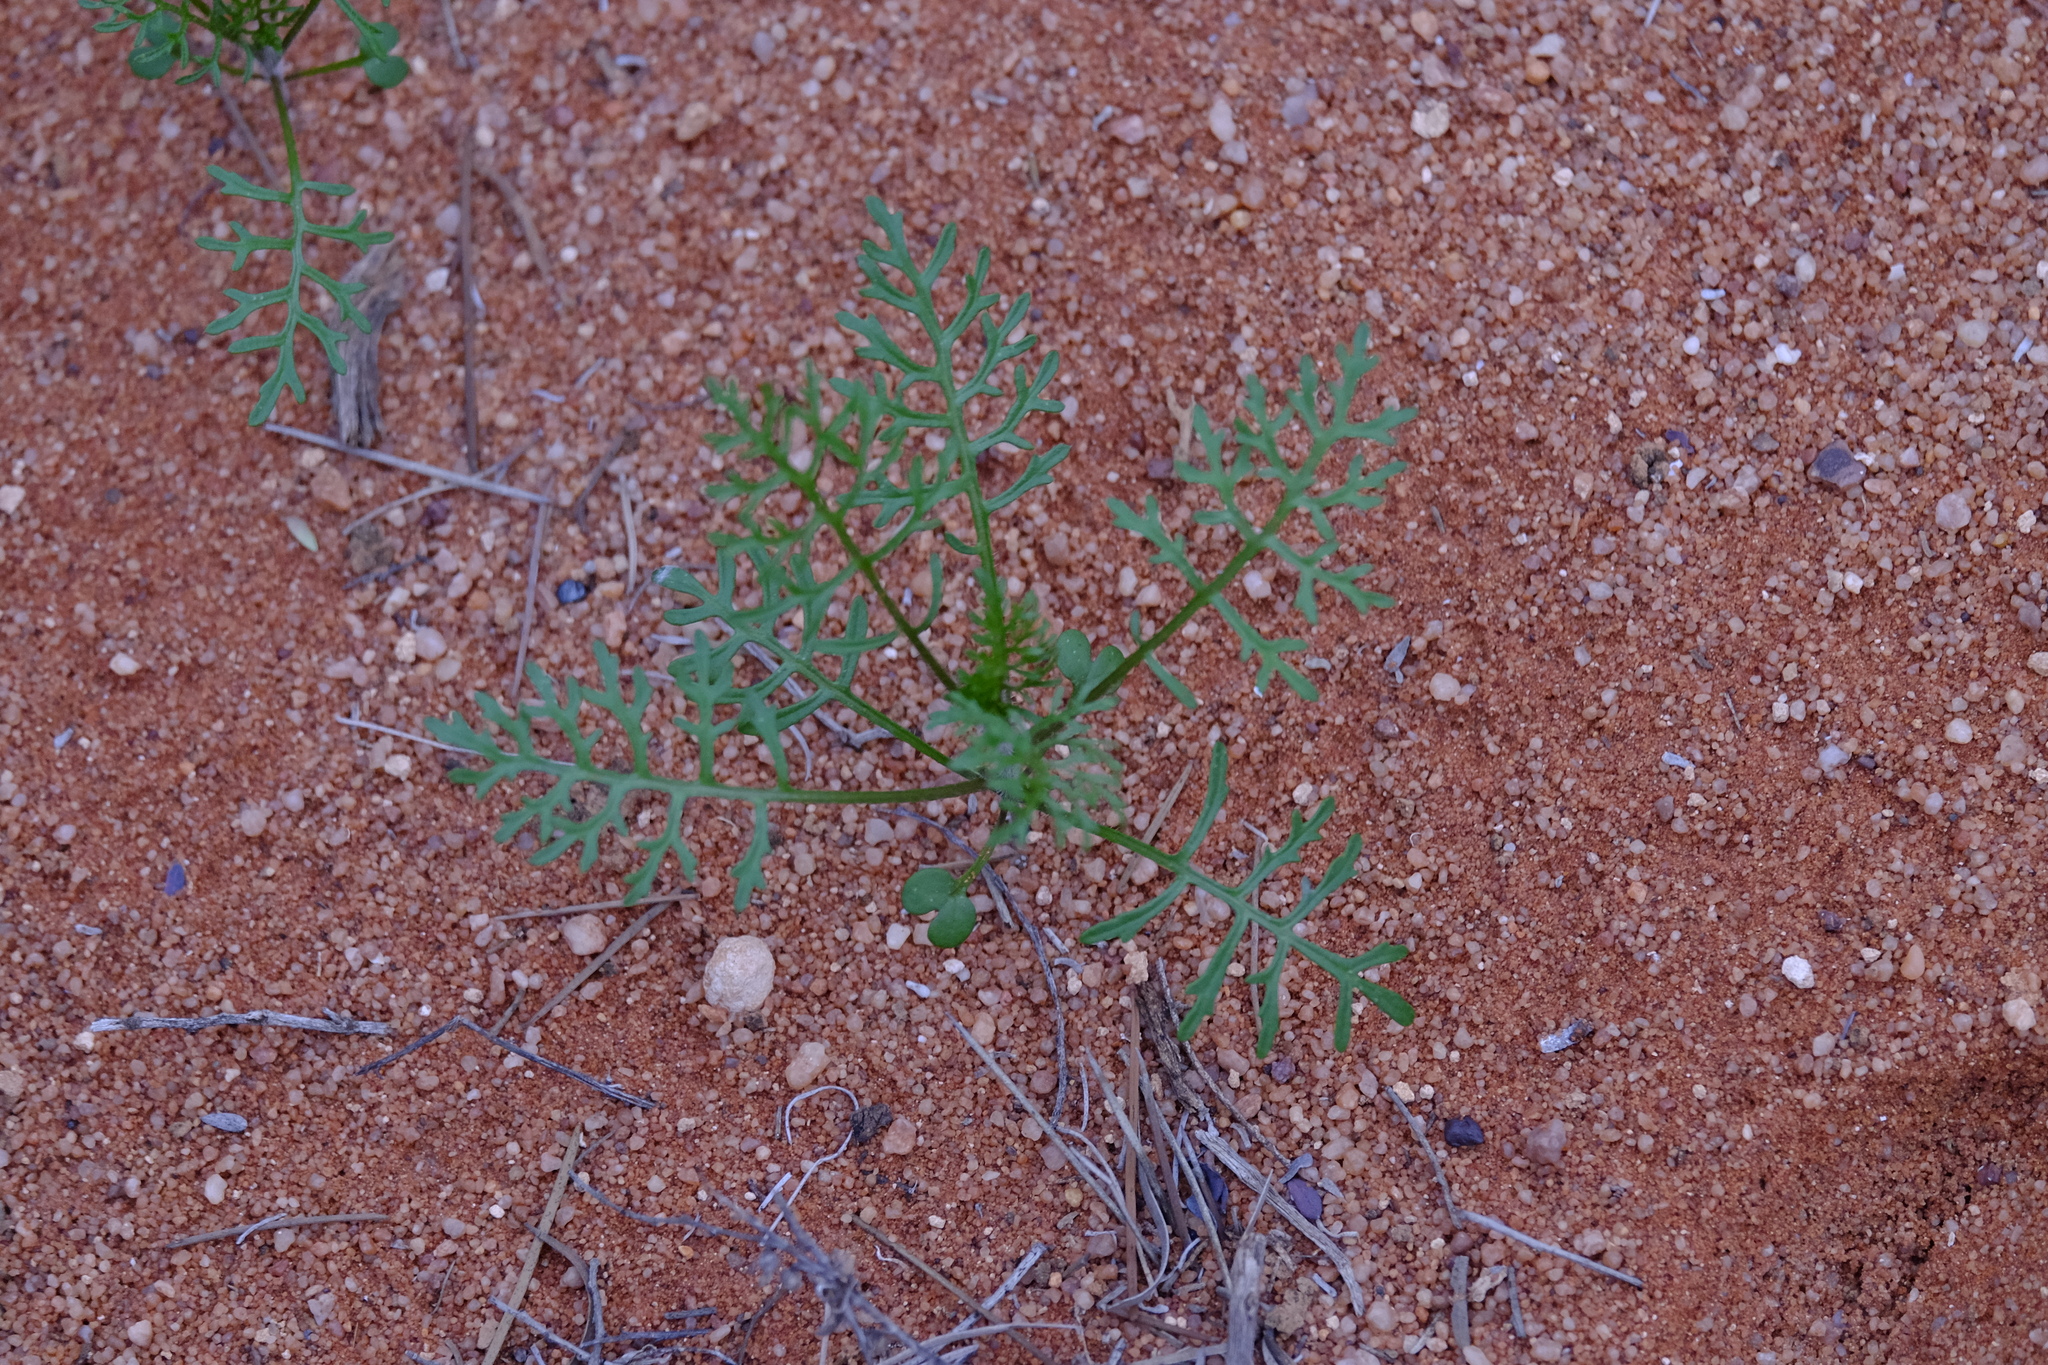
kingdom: Plantae
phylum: Tracheophyta
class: Magnoliopsida
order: Brassicales
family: Brassicaceae
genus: Carrichtera
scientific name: Carrichtera annua
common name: Cress rocket
